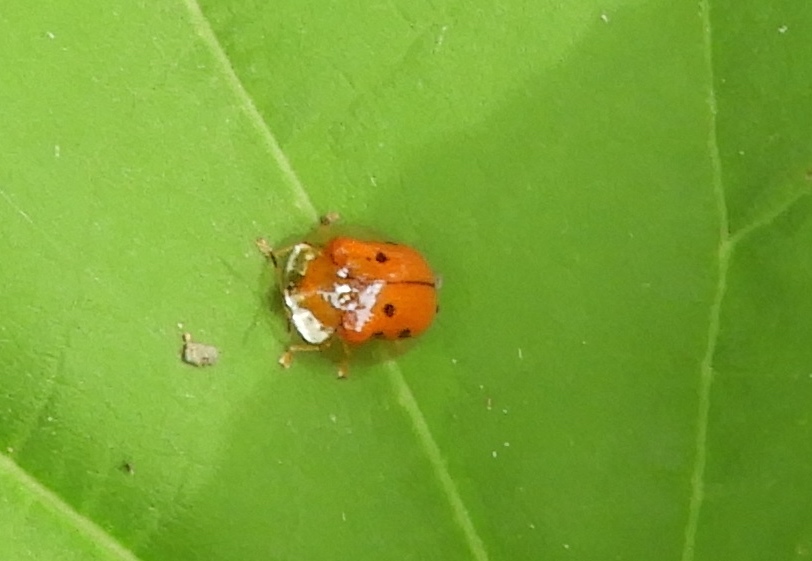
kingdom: Animalia
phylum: Arthropoda
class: Insecta
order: Coleoptera
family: Chrysomelidae
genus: Charidotella
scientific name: Charidotella sexpunctata
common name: Golden tortoise beetle
